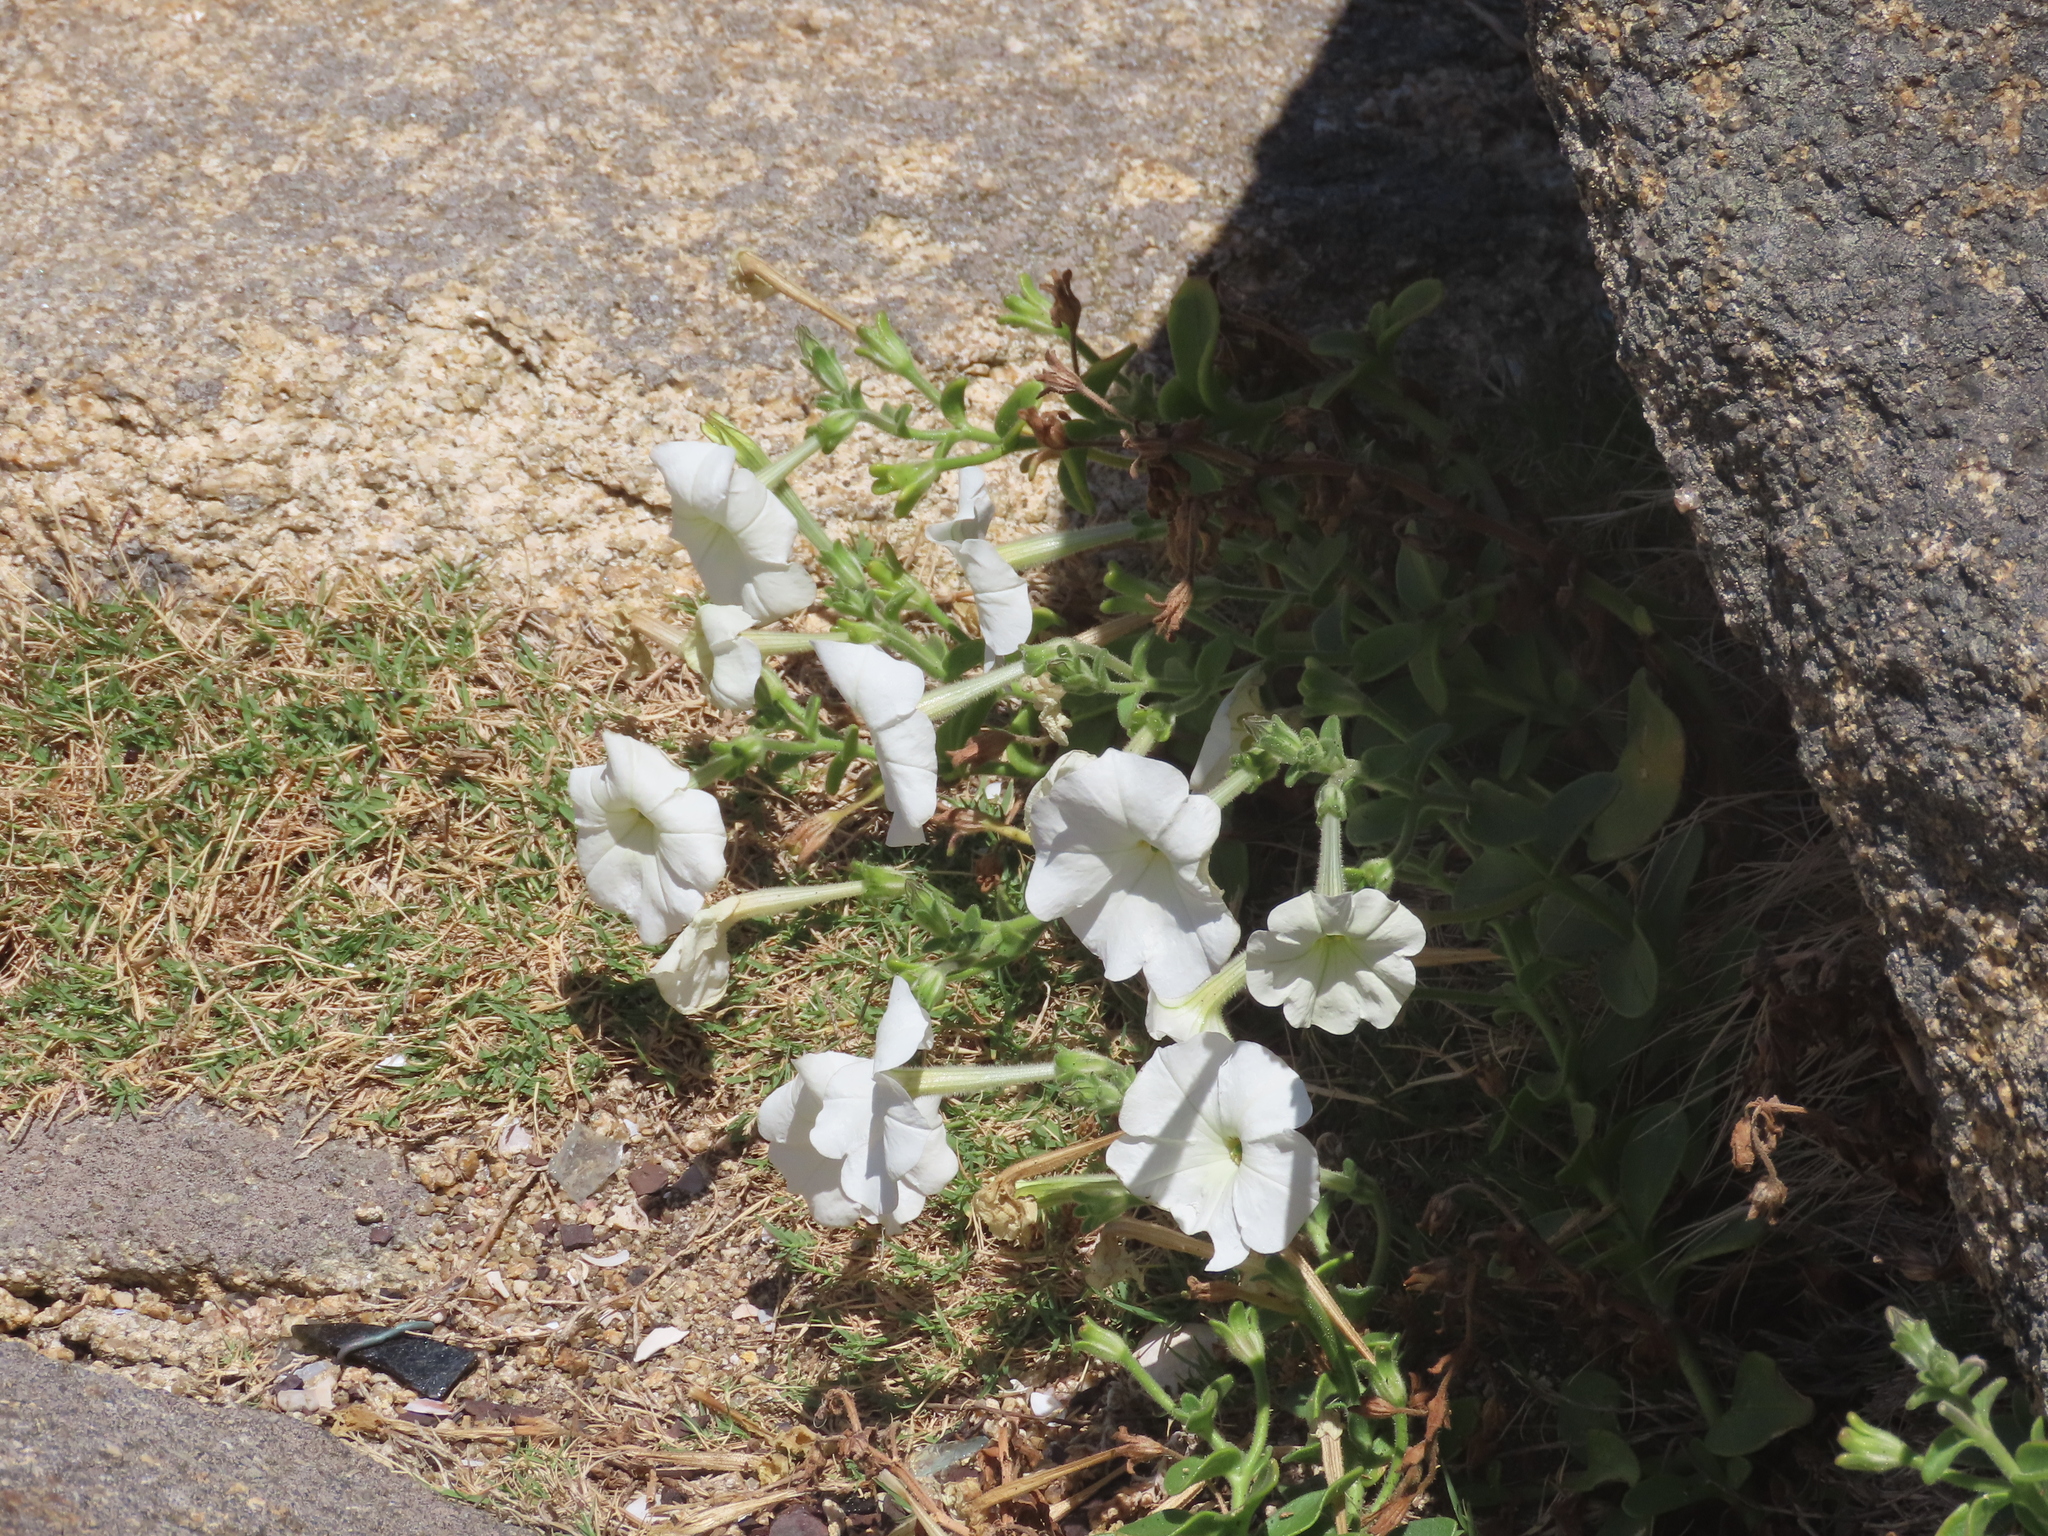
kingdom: Plantae
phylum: Tracheophyta
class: Magnoliopsida
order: Solanales
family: Solanaceae
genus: Petunia
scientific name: Petunia axillaris
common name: Large white petunia
